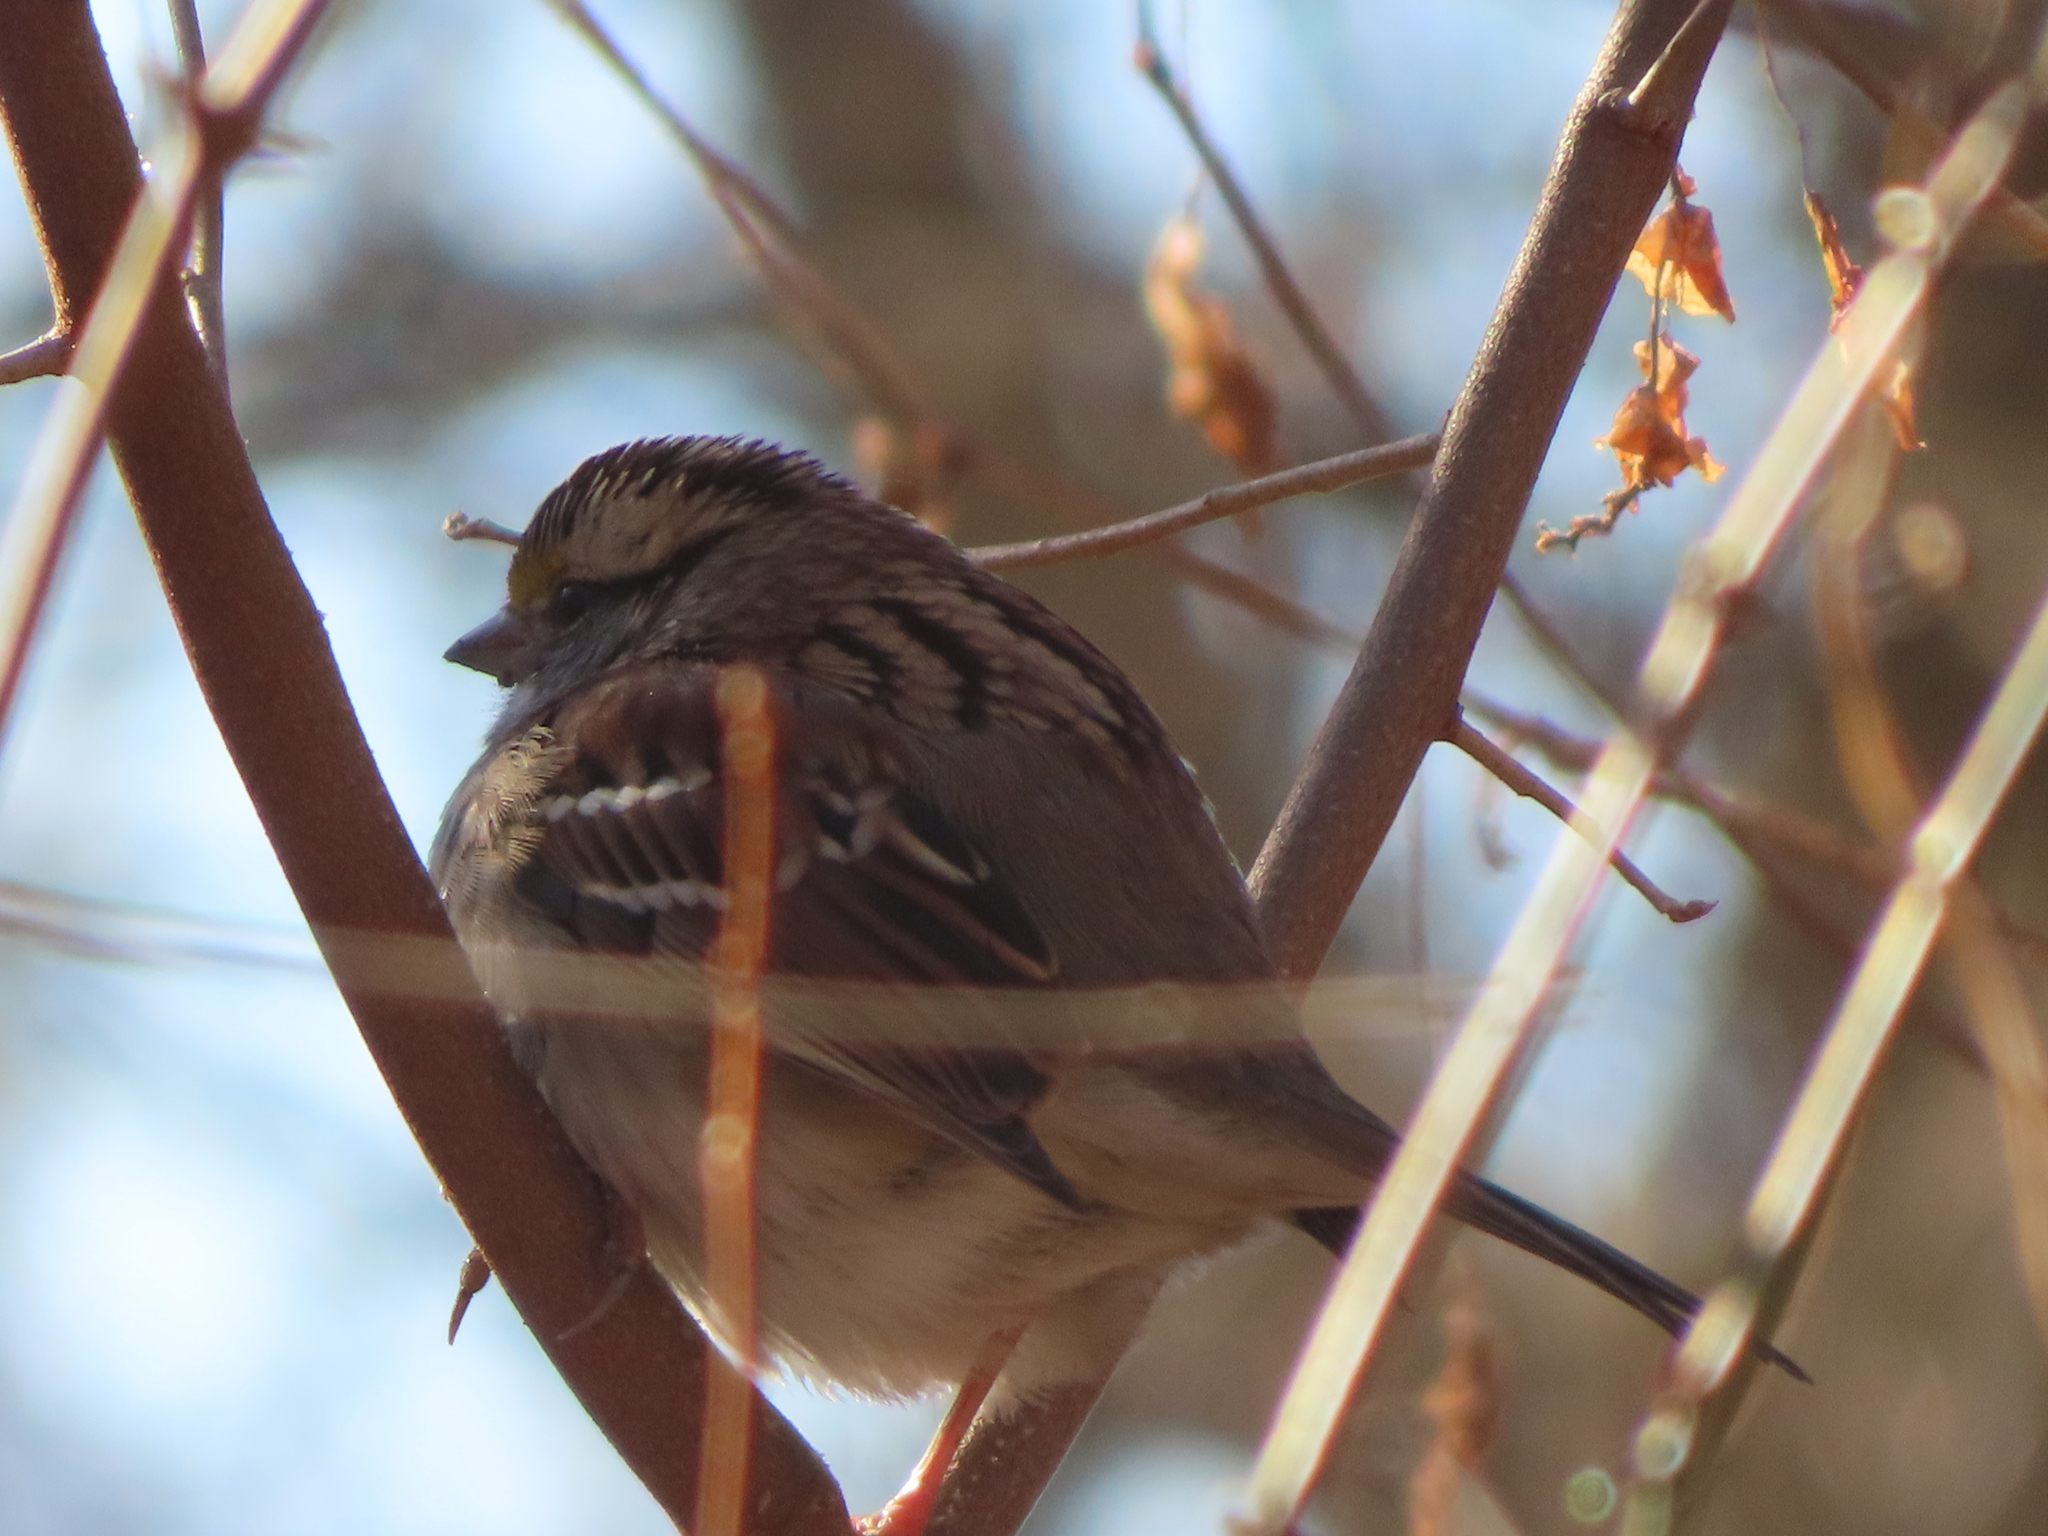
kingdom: Animalia
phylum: Chordata
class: Aves
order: Passeriformes
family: Passerellidae
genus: Zonotrichia
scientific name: Zonotrichia albicollis
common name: White-throated sparrow
